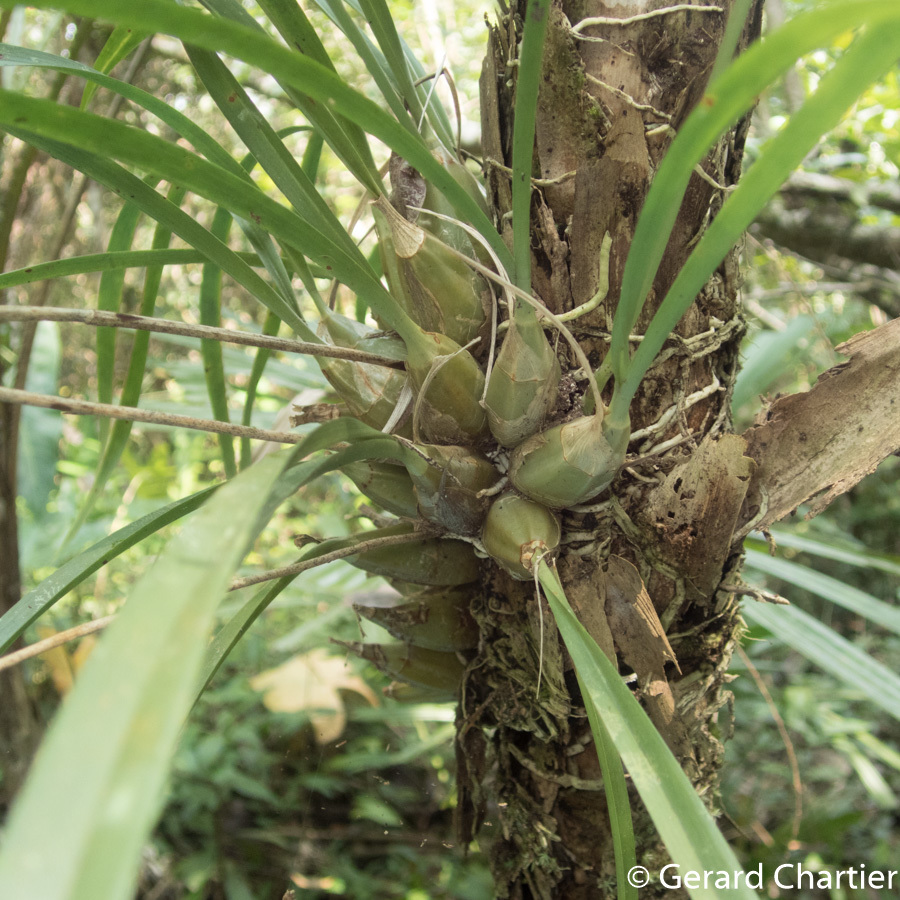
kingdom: Plantae
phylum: Tracheophyta
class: Liliopsida
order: Asparagales
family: Orchidaceae
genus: Acriopsis
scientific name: Acriopsis liliifolia
